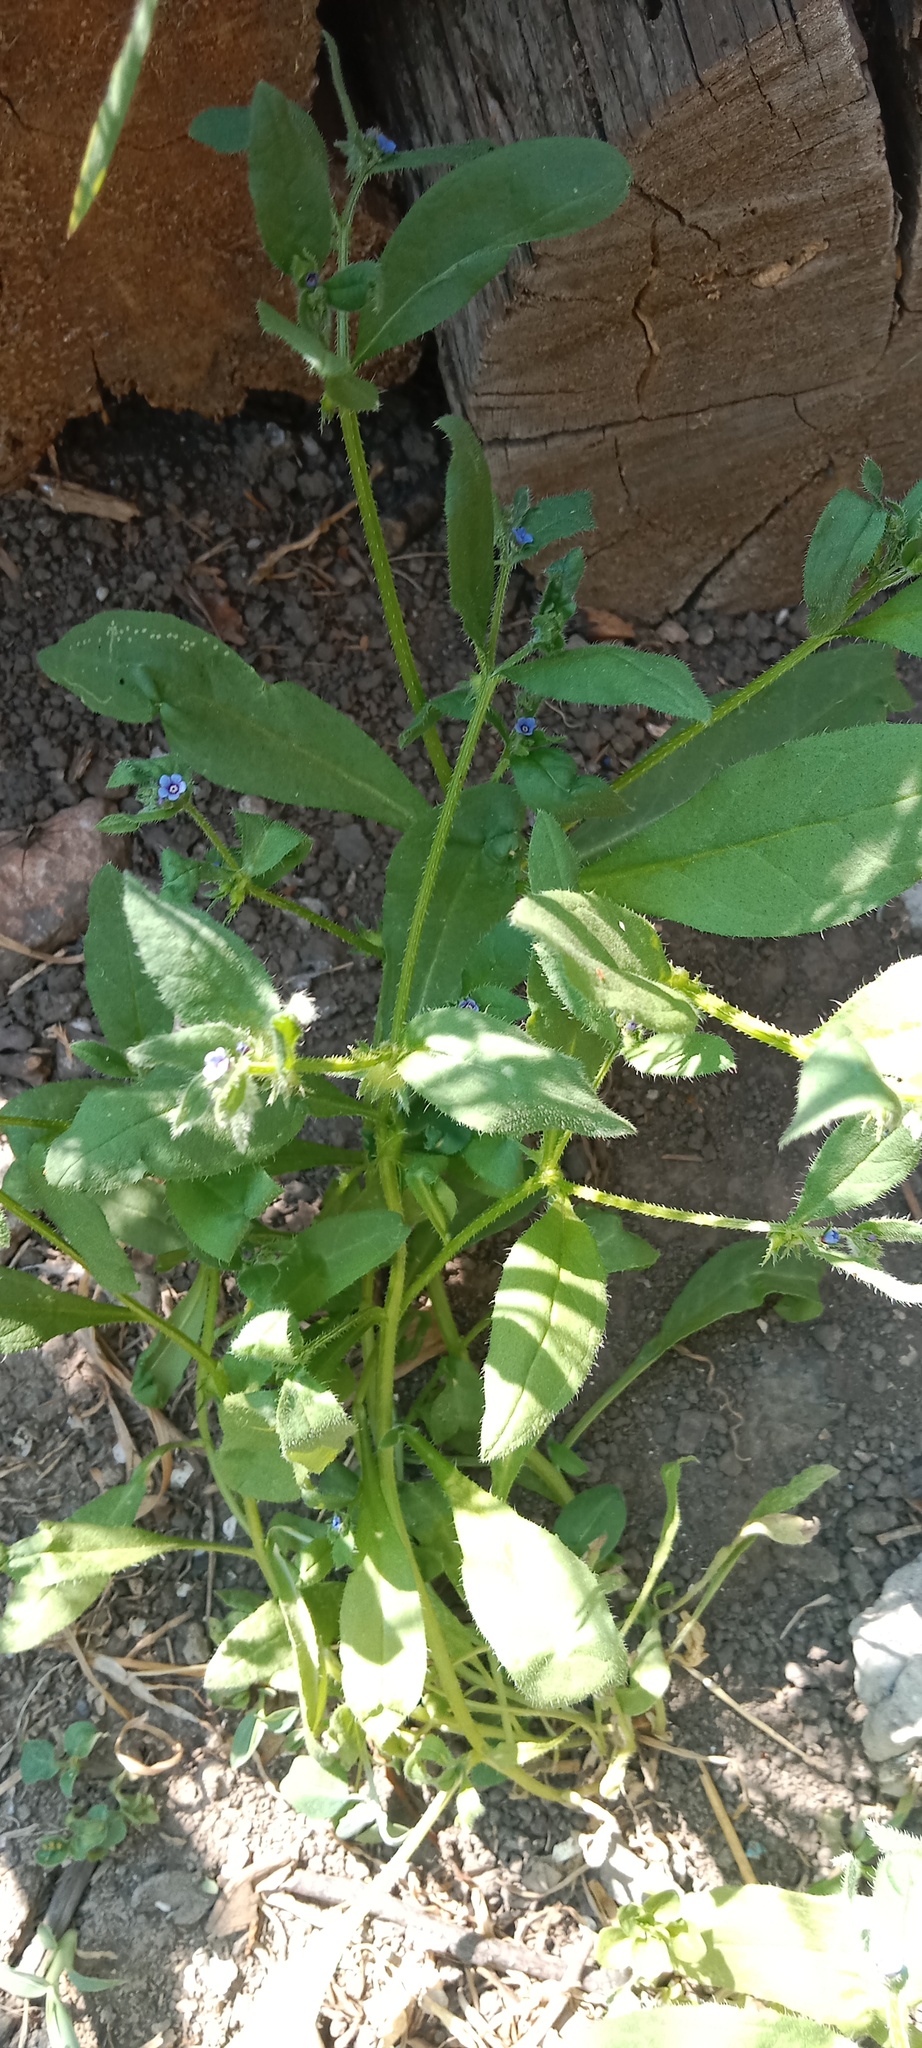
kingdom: Plantae
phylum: Tracheophyta
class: Magnoliopsida
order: Boraginales
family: Boraginaceae
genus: Asperugo
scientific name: Asperugo procumbens
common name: Madwort
